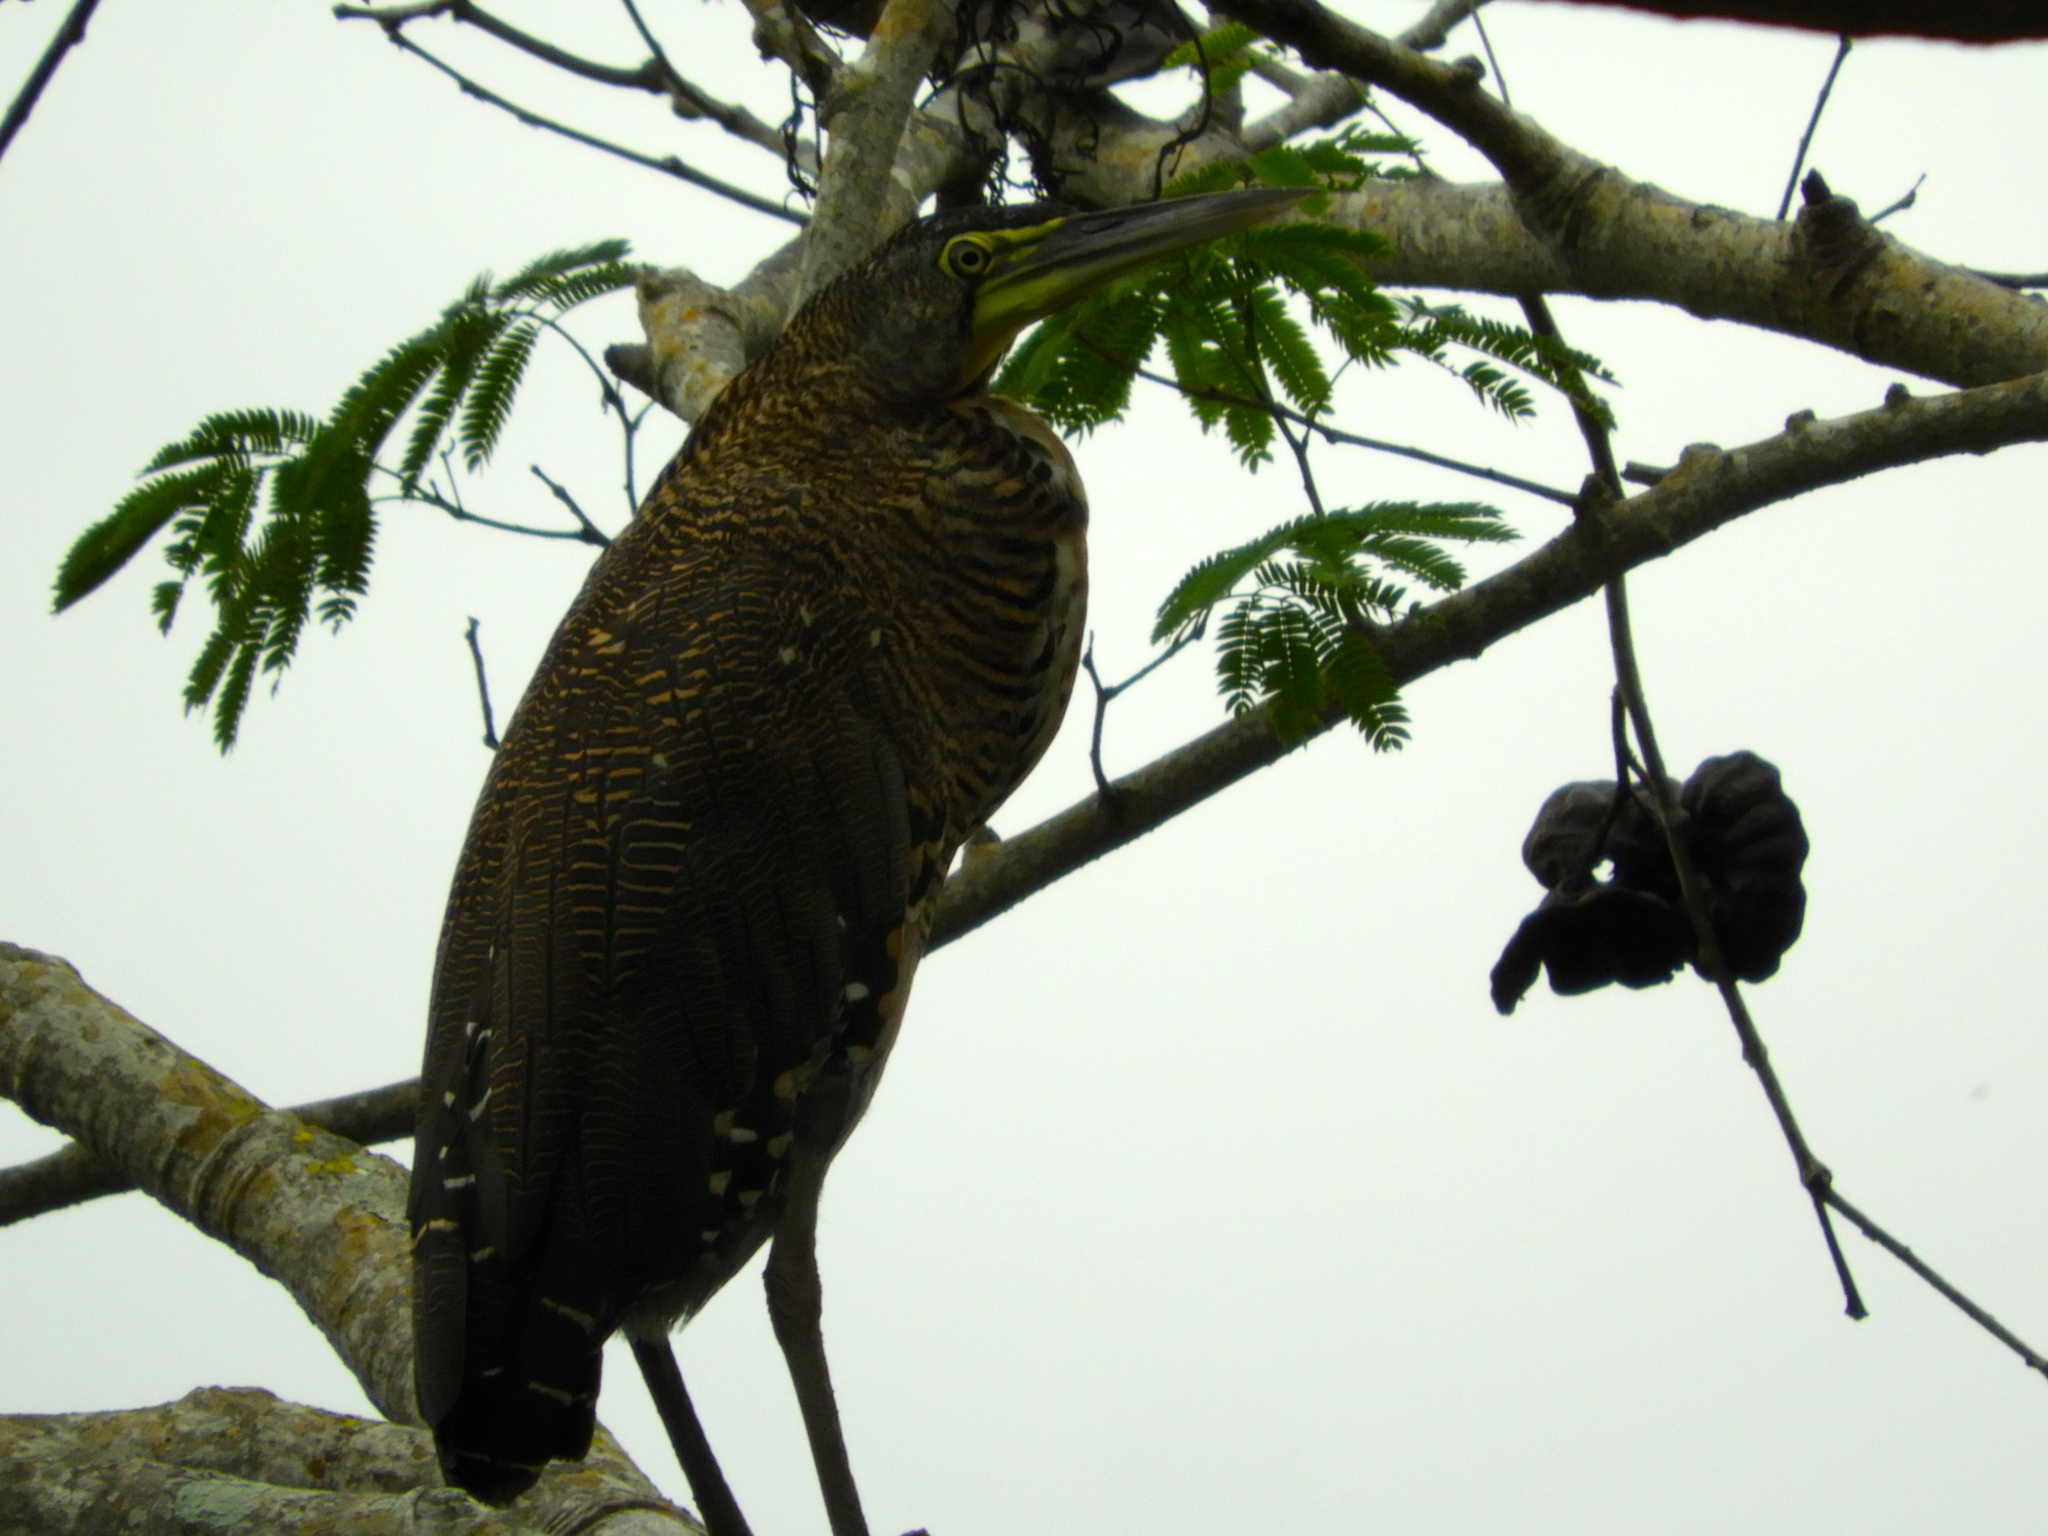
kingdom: Animalia
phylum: Chordata
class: Aves
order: Pelecaniformes
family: Ardeidae
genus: Tigrisoma
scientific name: Tigrisoma mexicanum
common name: Bare-throated tiger-heron
